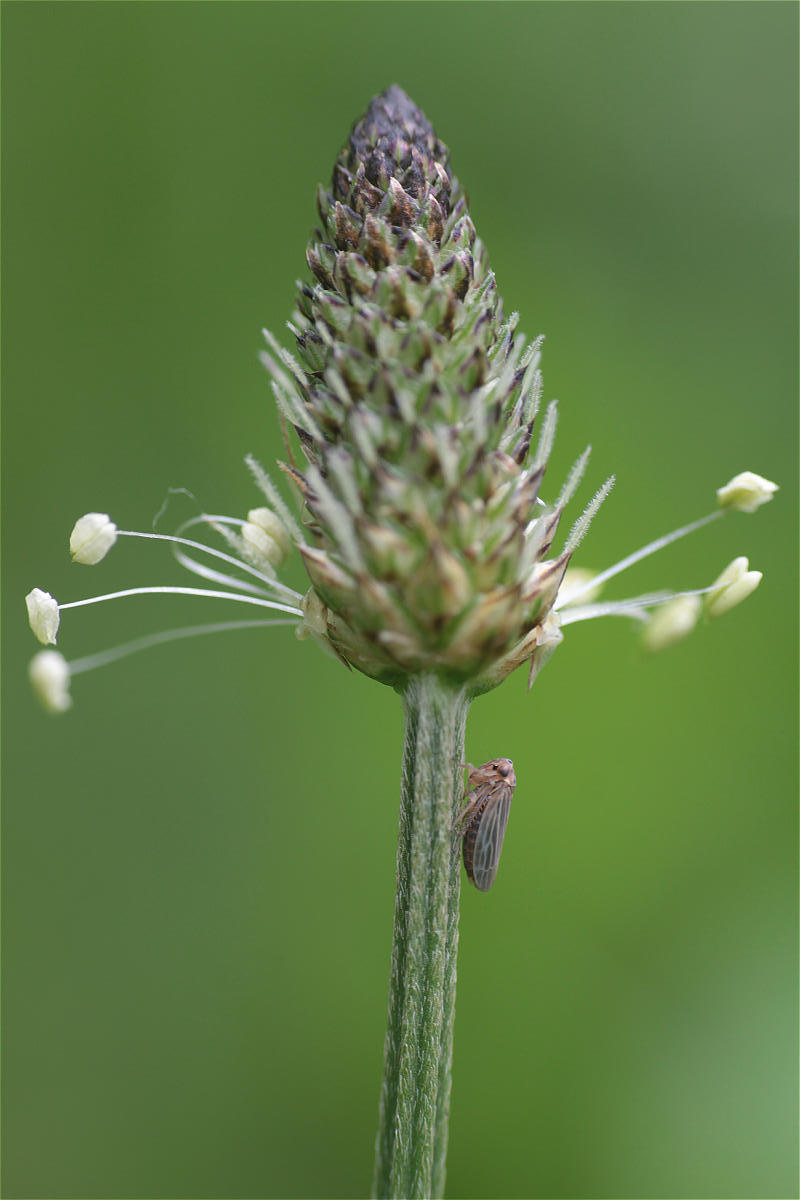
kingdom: Plantae
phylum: Tracheophyta
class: Magnoliopsida
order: Lamiales
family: Plantaginaceae
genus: Plantago
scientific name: Plantago lanceolata
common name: Ribwort plantain
